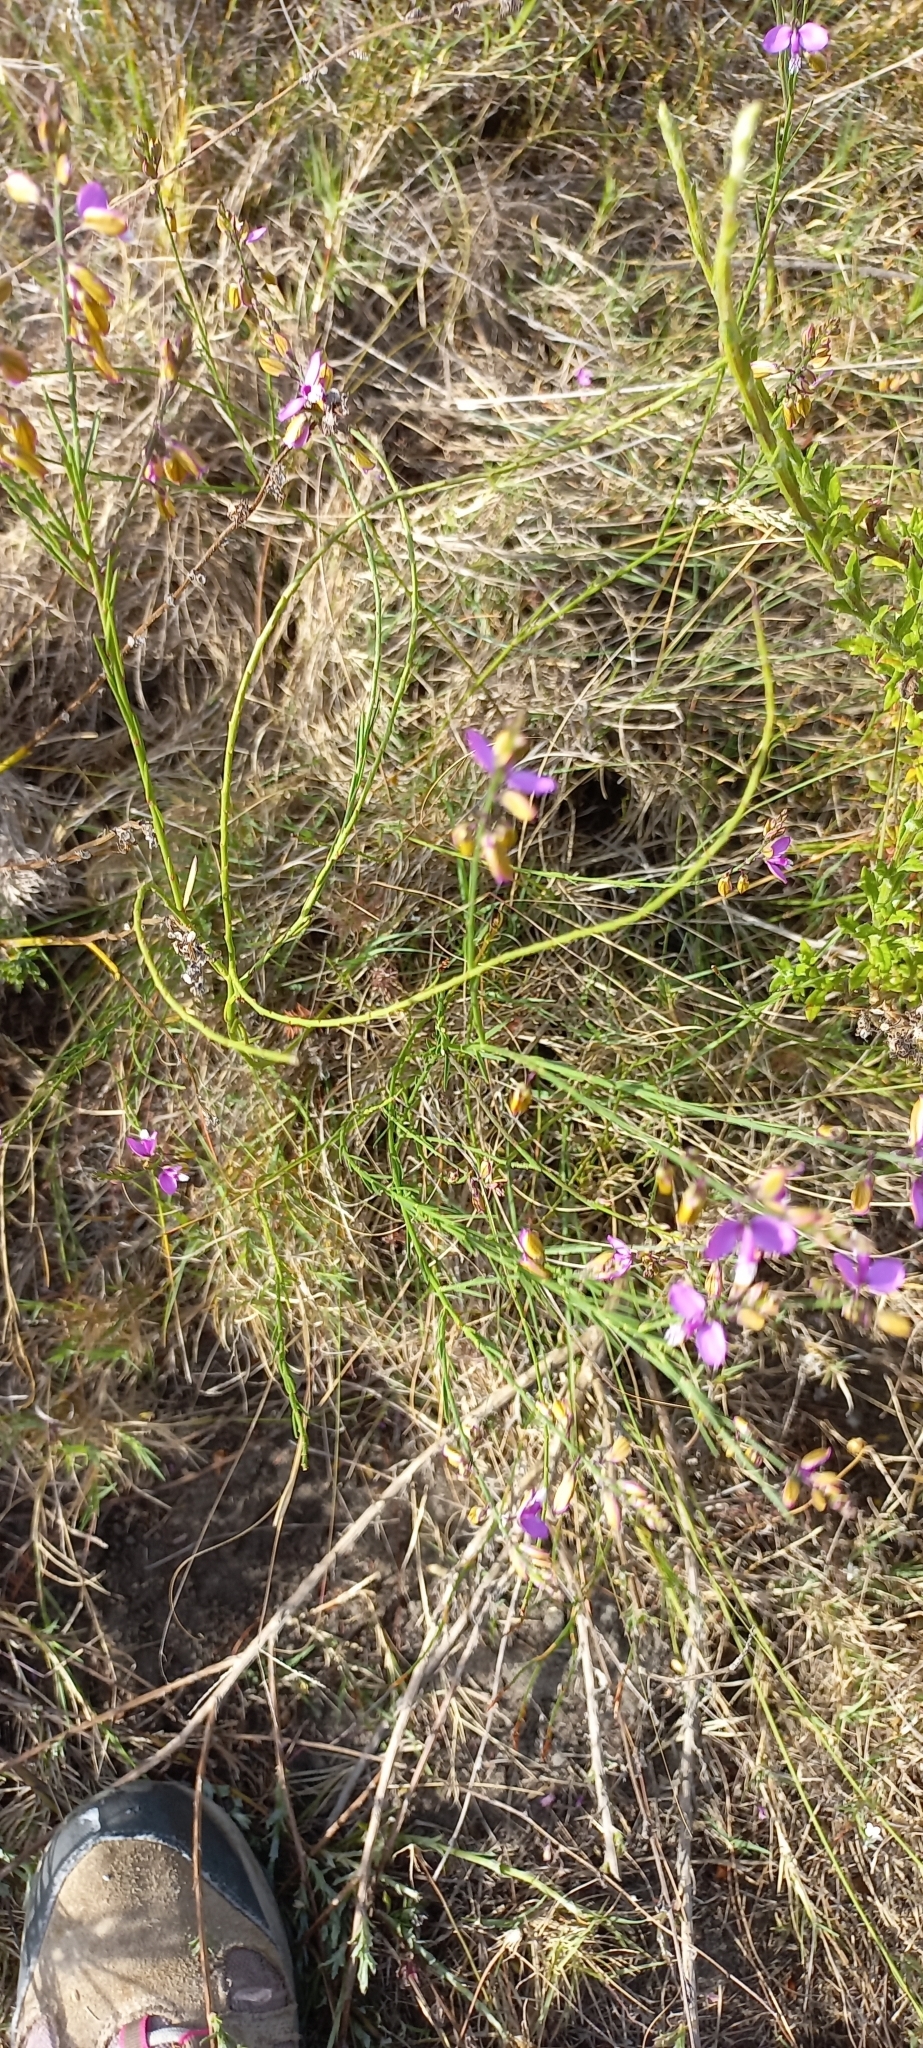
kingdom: Plantae
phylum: Tracheophyta
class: Magnoliopsida
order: Fabales
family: Polygalaceae
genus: Polygala
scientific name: Polygala garcini
